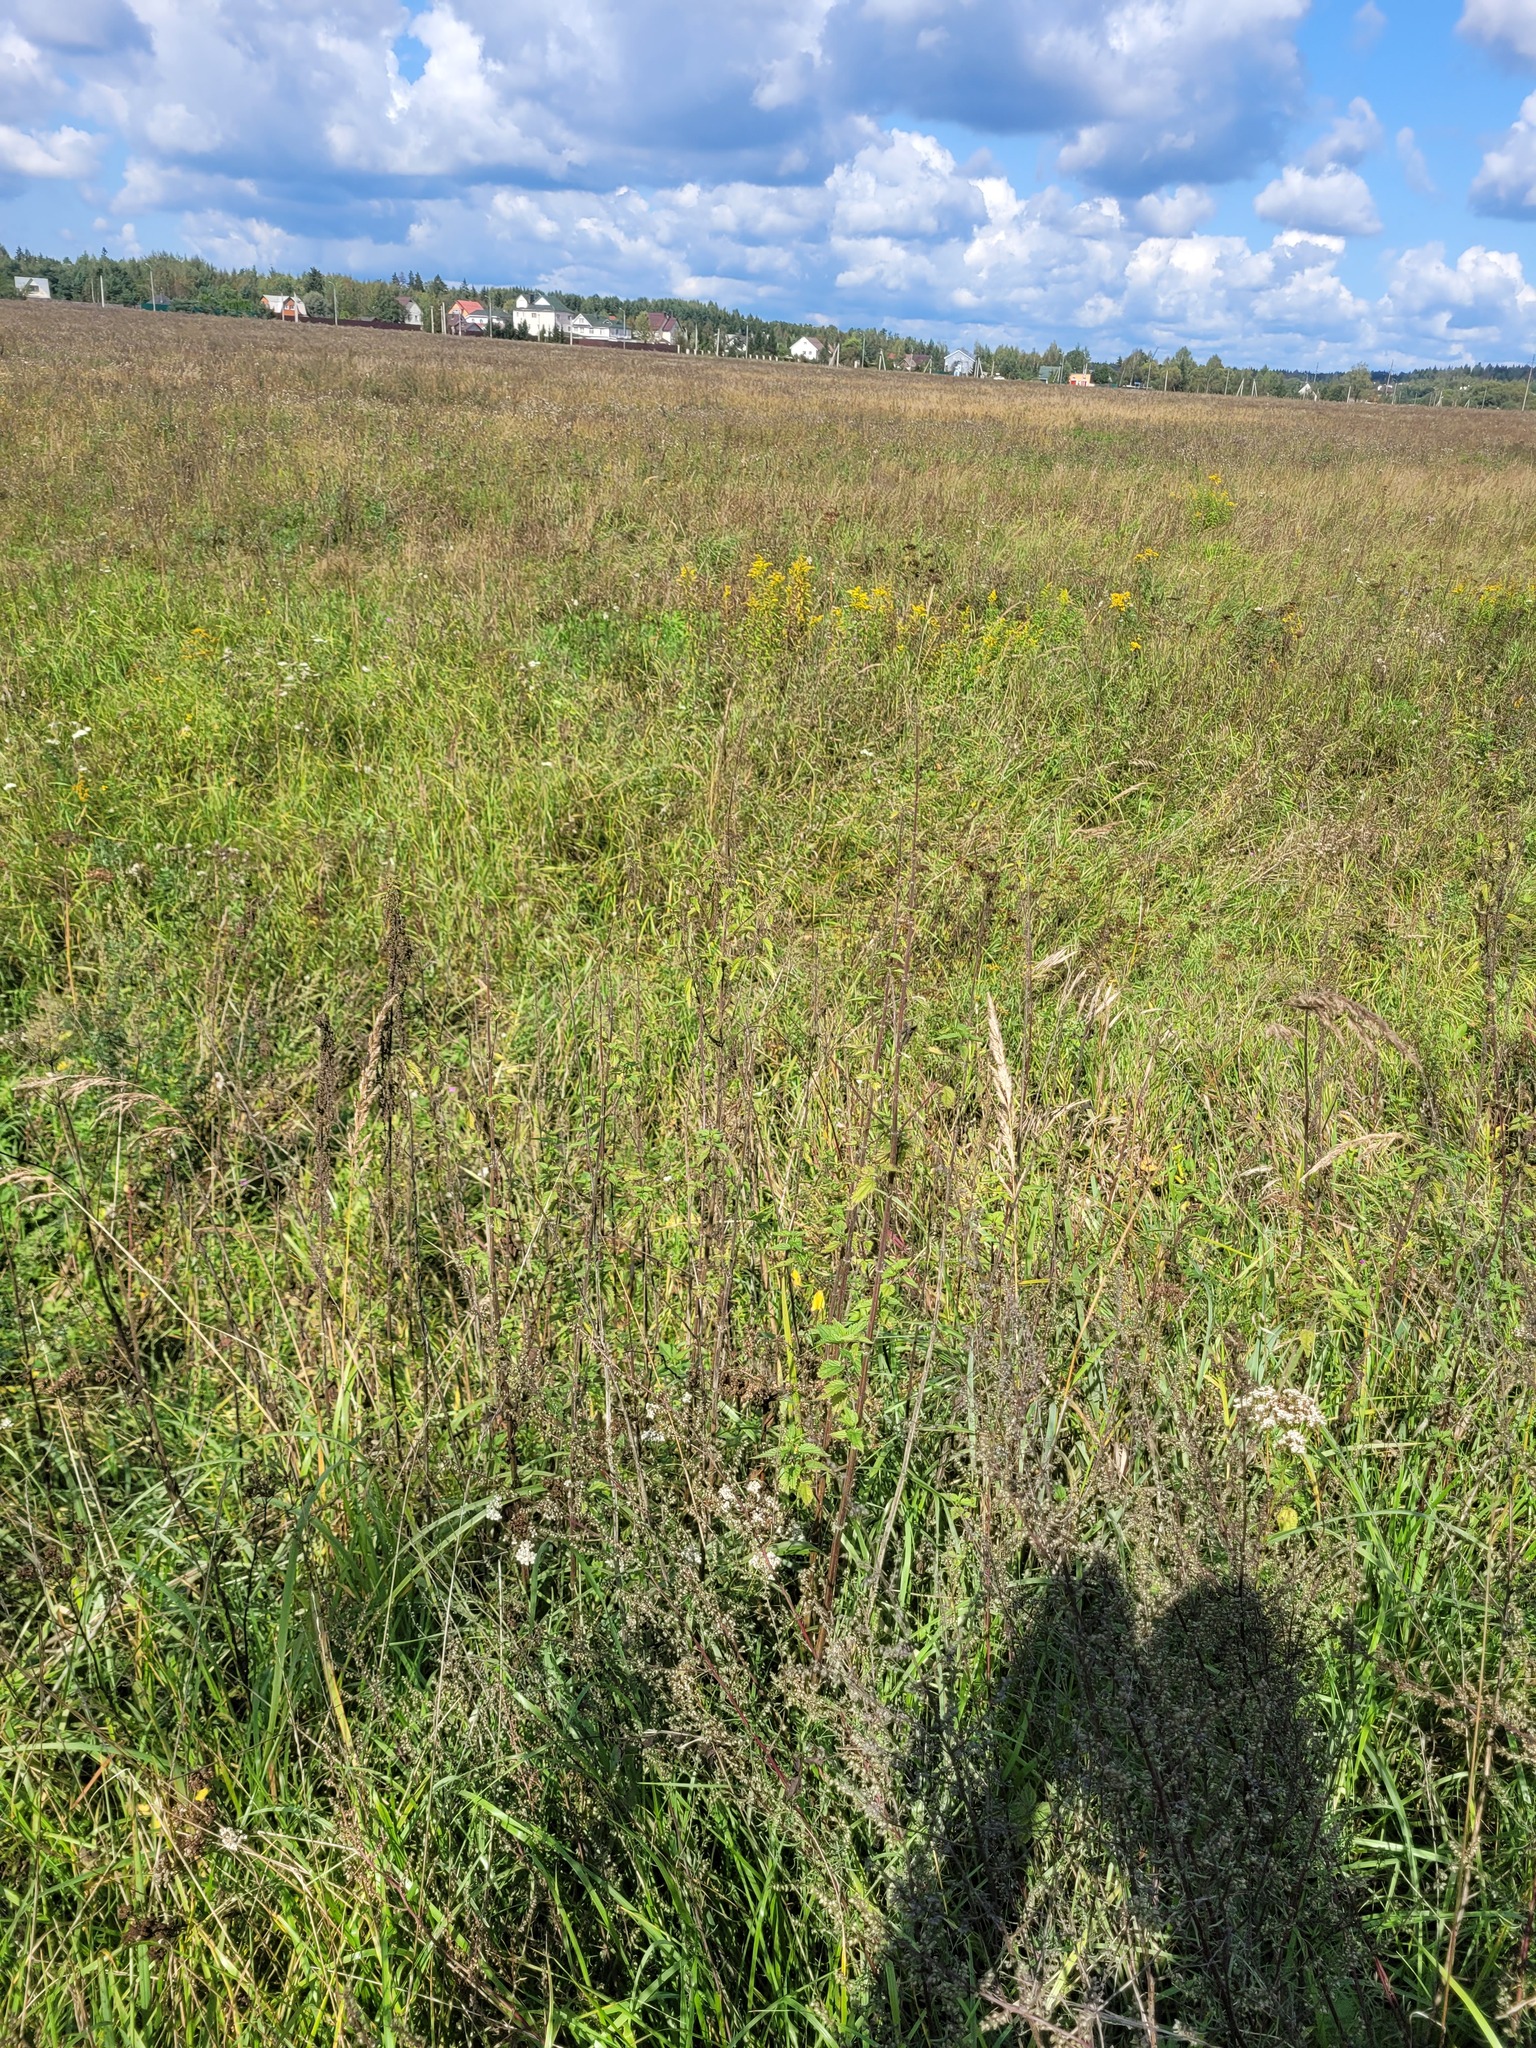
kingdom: Plantae
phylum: Tracheophyta
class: Magnoliopsida
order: Rosales
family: Urticaceae
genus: Urtica
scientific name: Urtica dioica
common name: Common nettle
